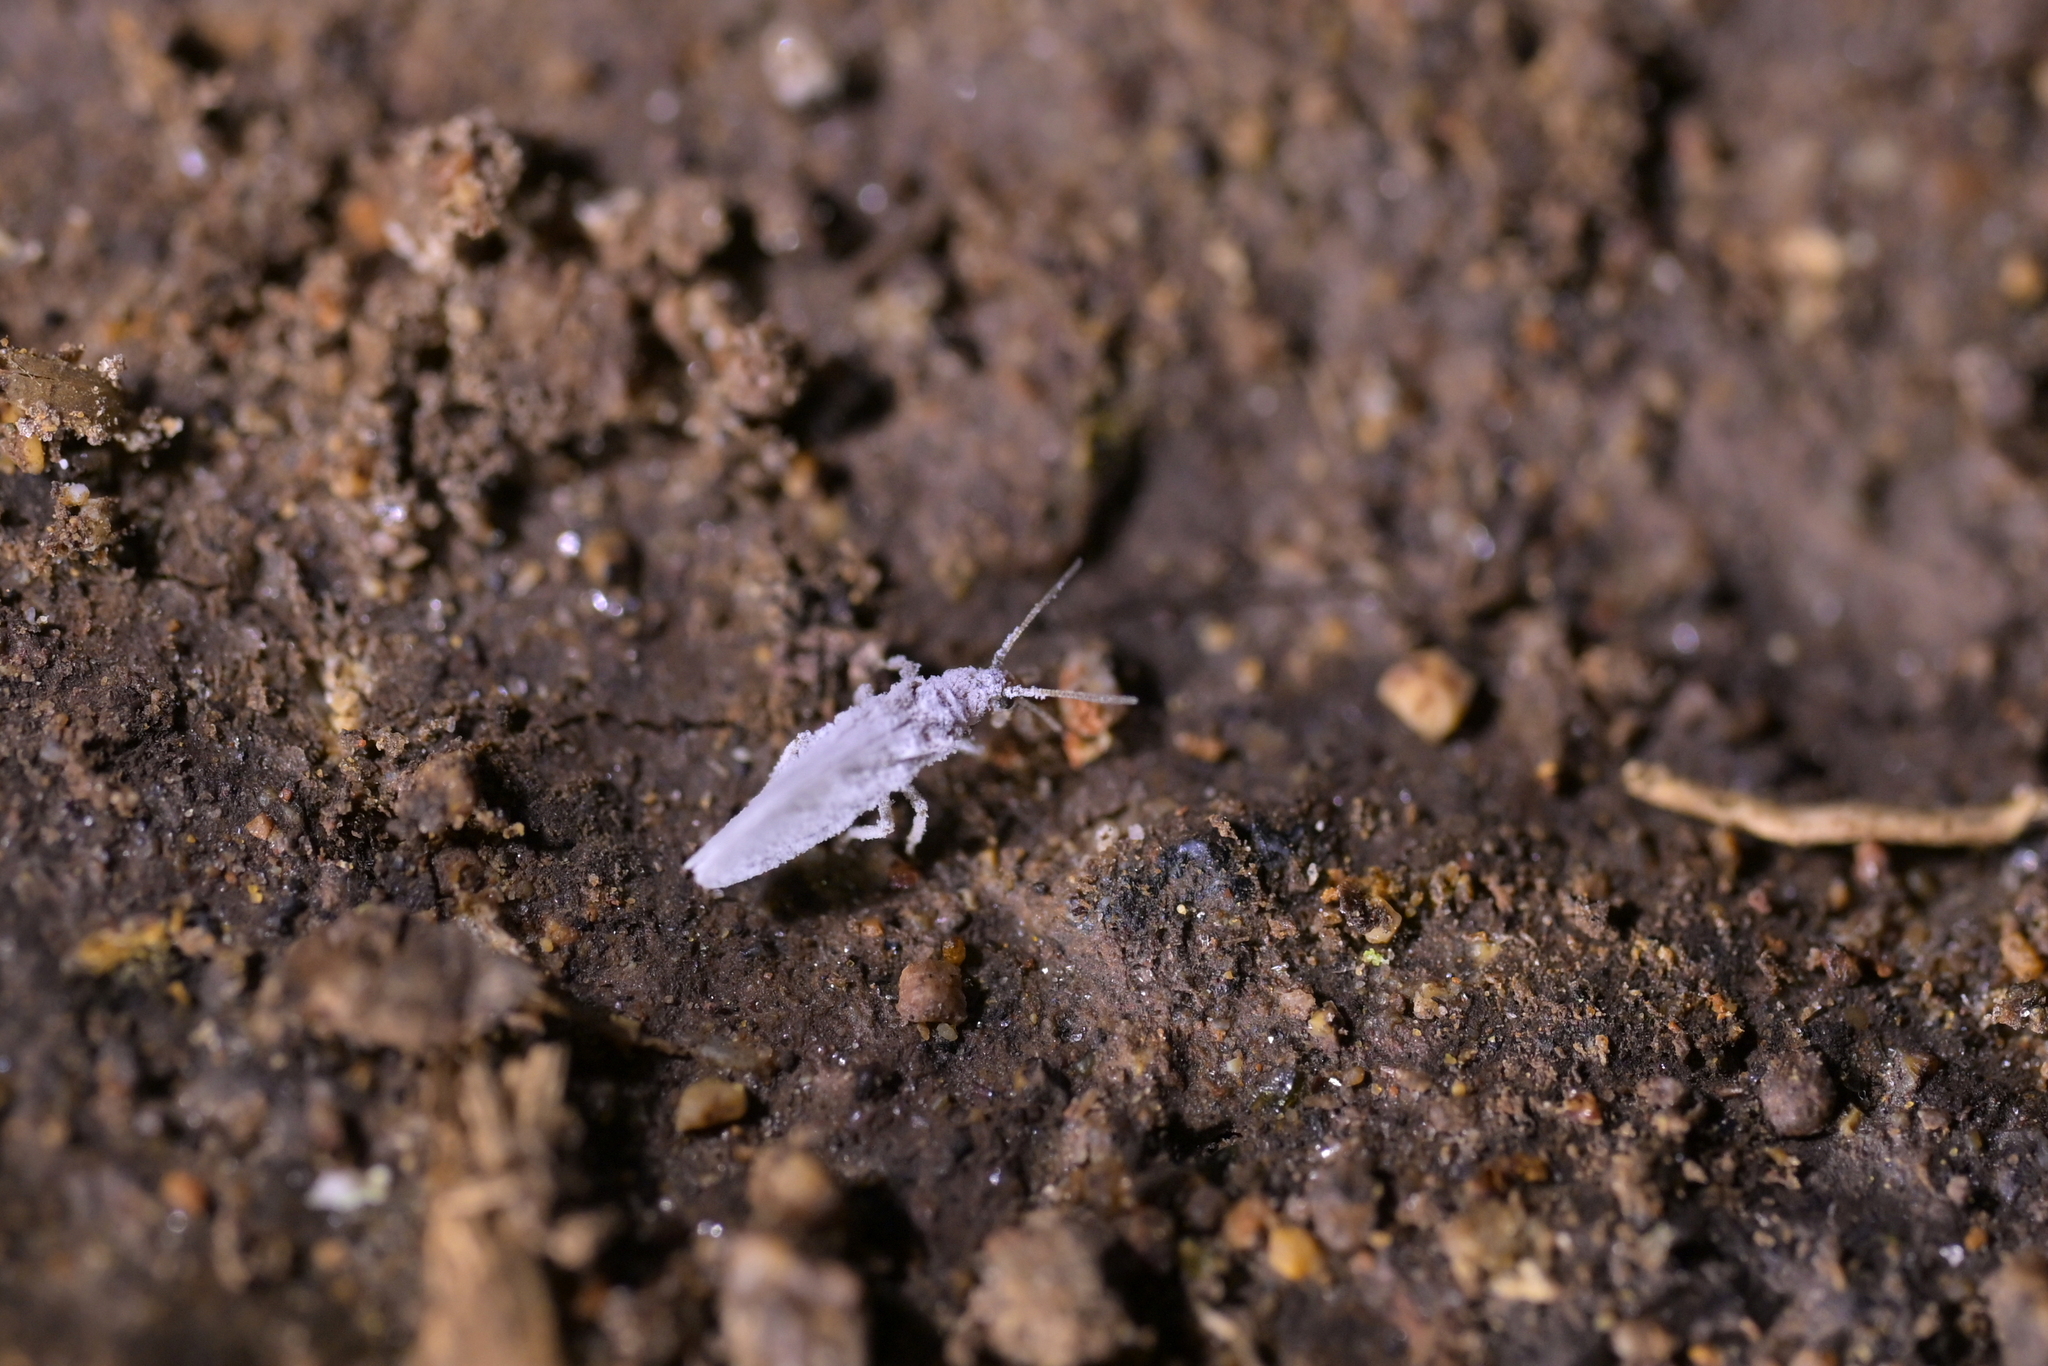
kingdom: Animalia
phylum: Arthropoda
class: Insecta
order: Neuroptera
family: Coniopterygidae
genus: Cryptoscenea
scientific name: Cryptoscenea australiensis
